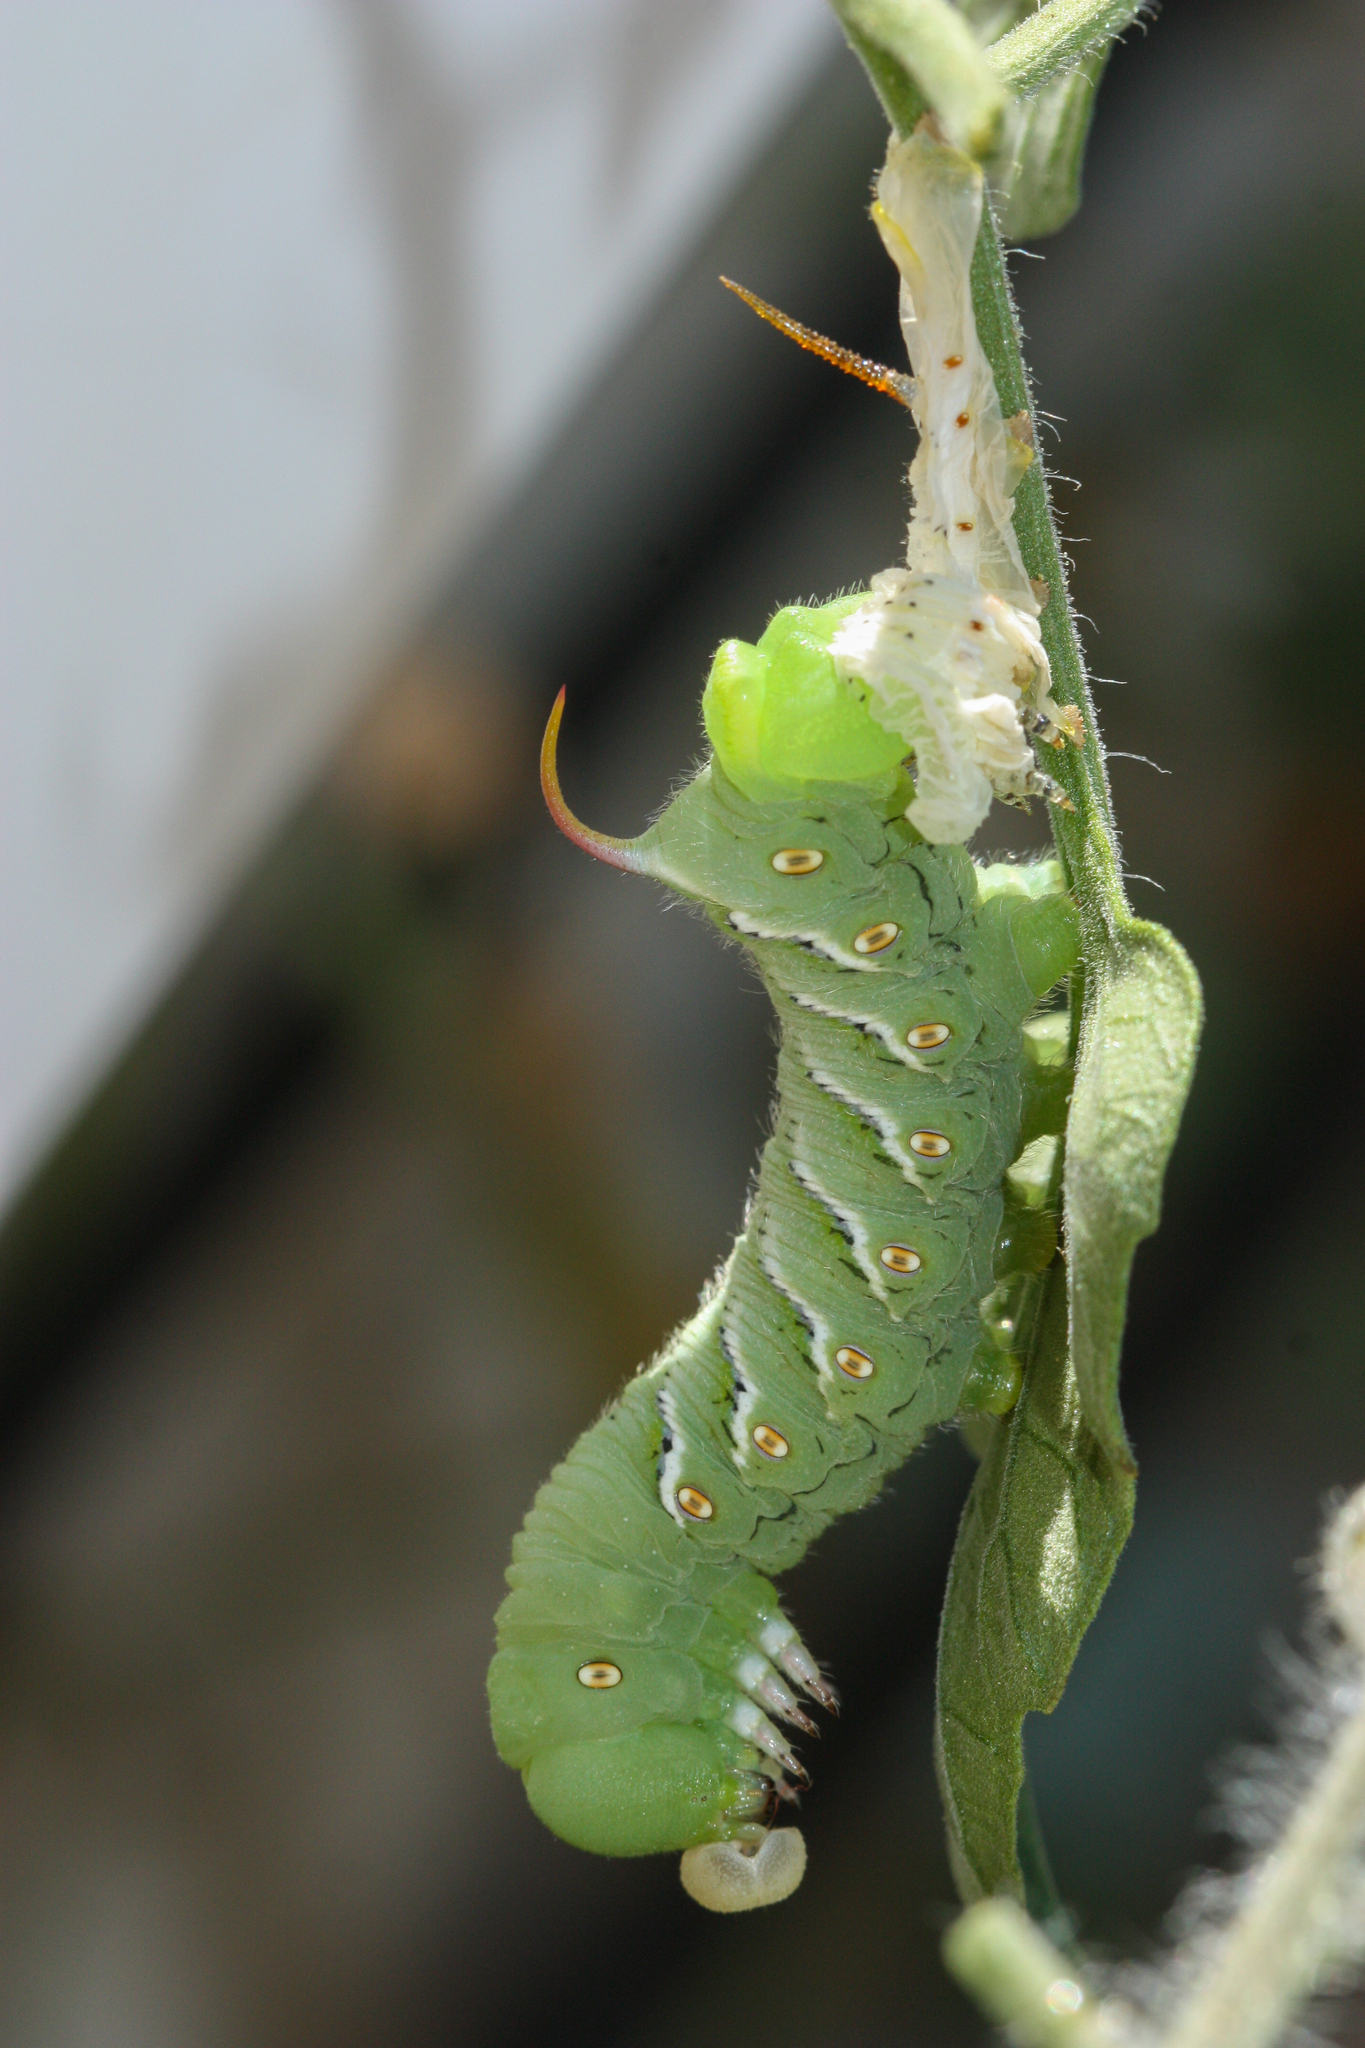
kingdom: Animalia
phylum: Arthropoda
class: Insecta
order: Lepidoptera
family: Sphingidae
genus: Manduca
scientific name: Manduca sexta
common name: Carolina sphinx
